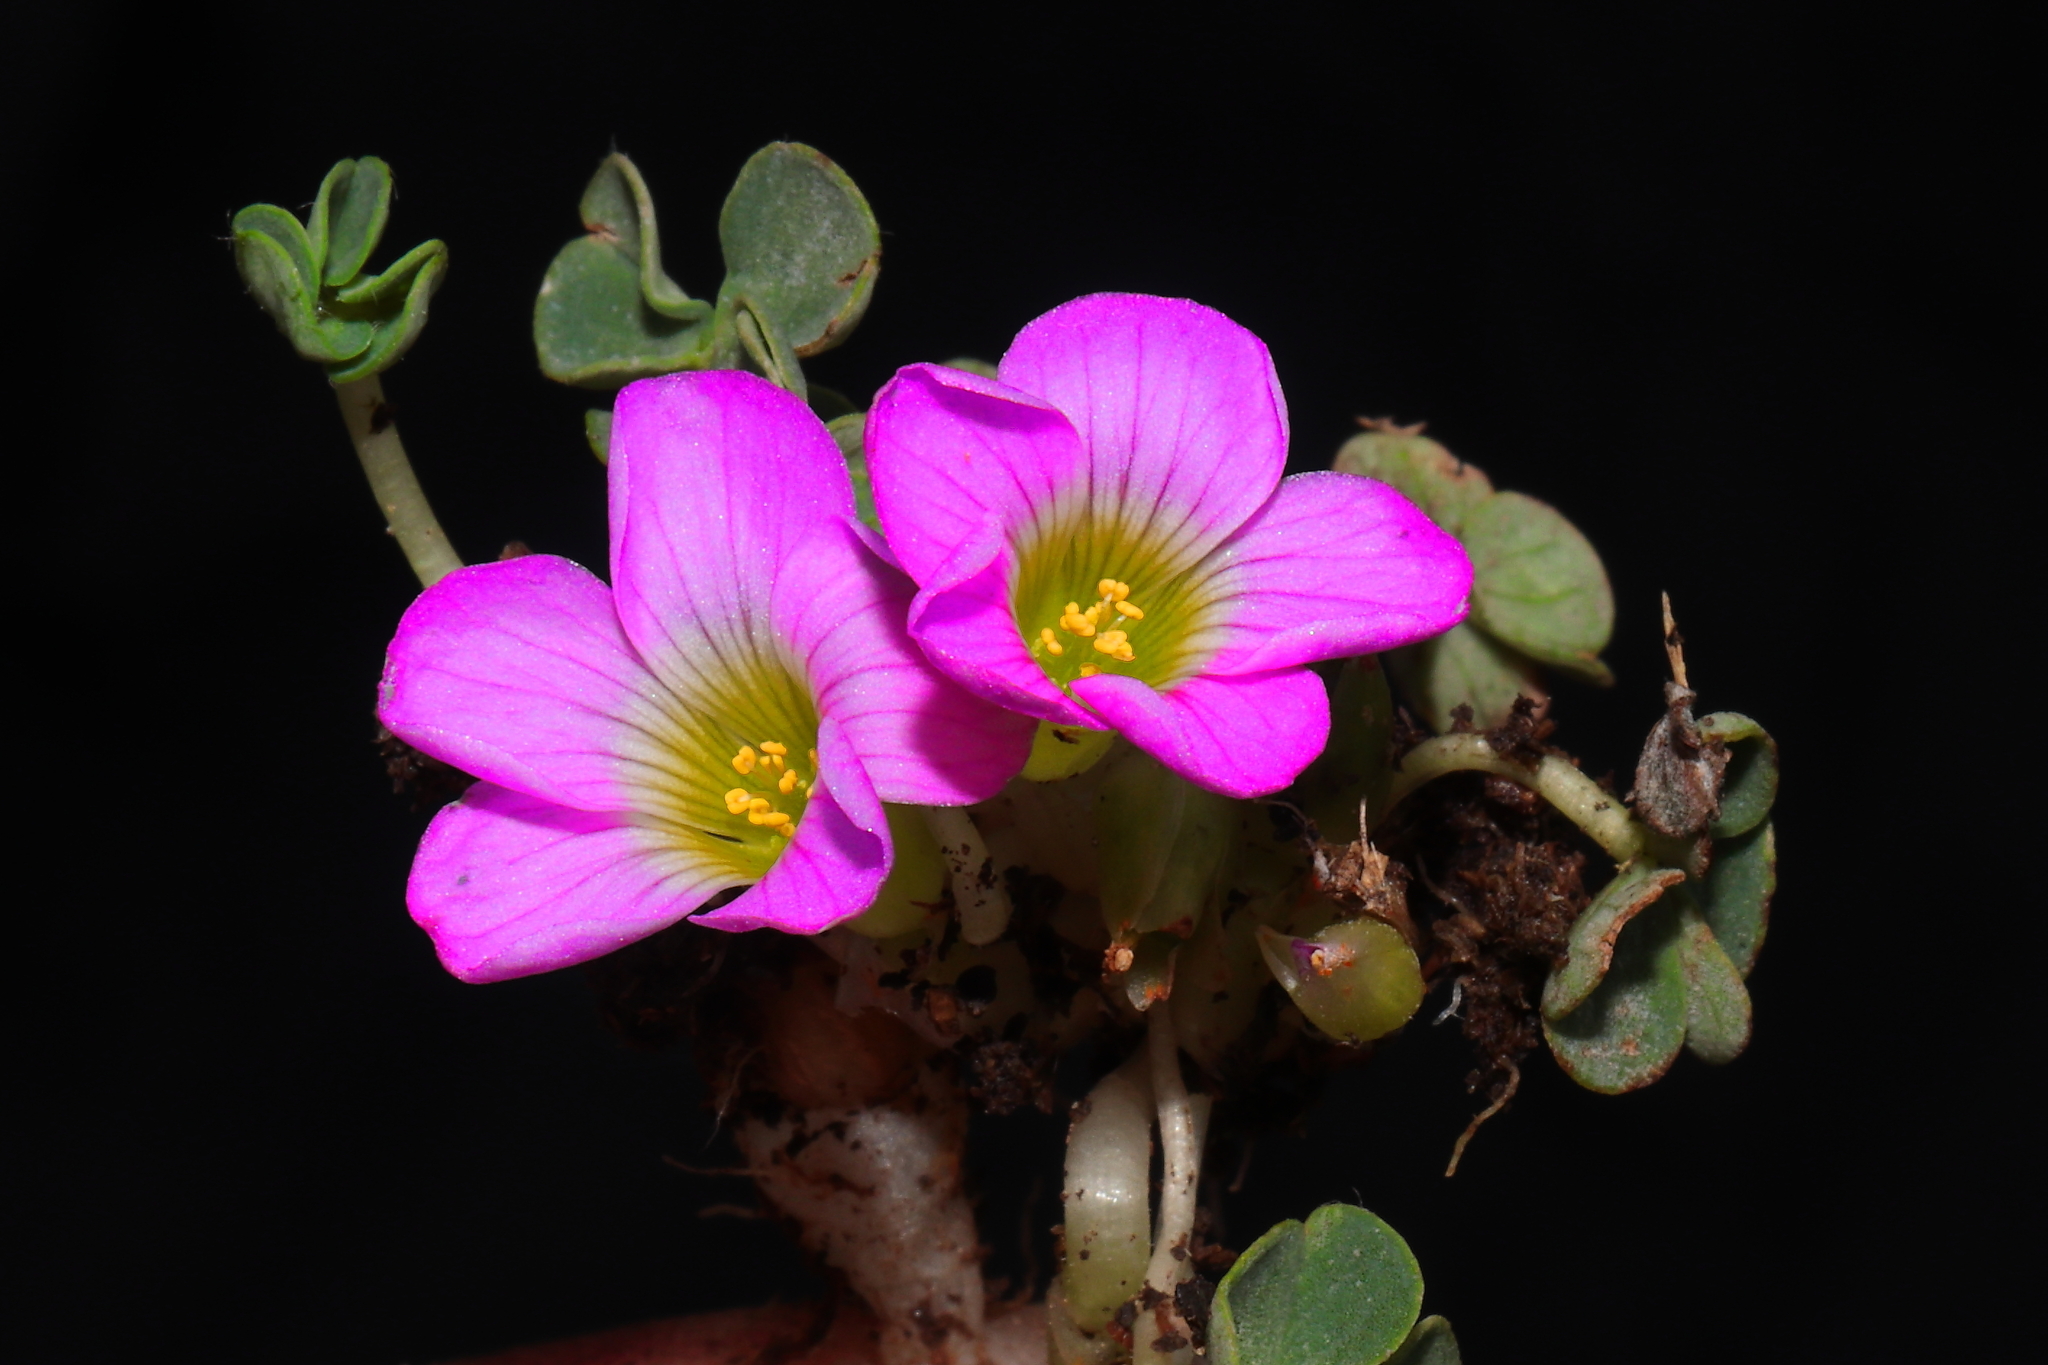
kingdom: Plantae
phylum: Tracheophyta
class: Magnoliopsida
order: Oxalidales
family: Oxalidaceae
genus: Oxalis
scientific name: Oxalis minima
